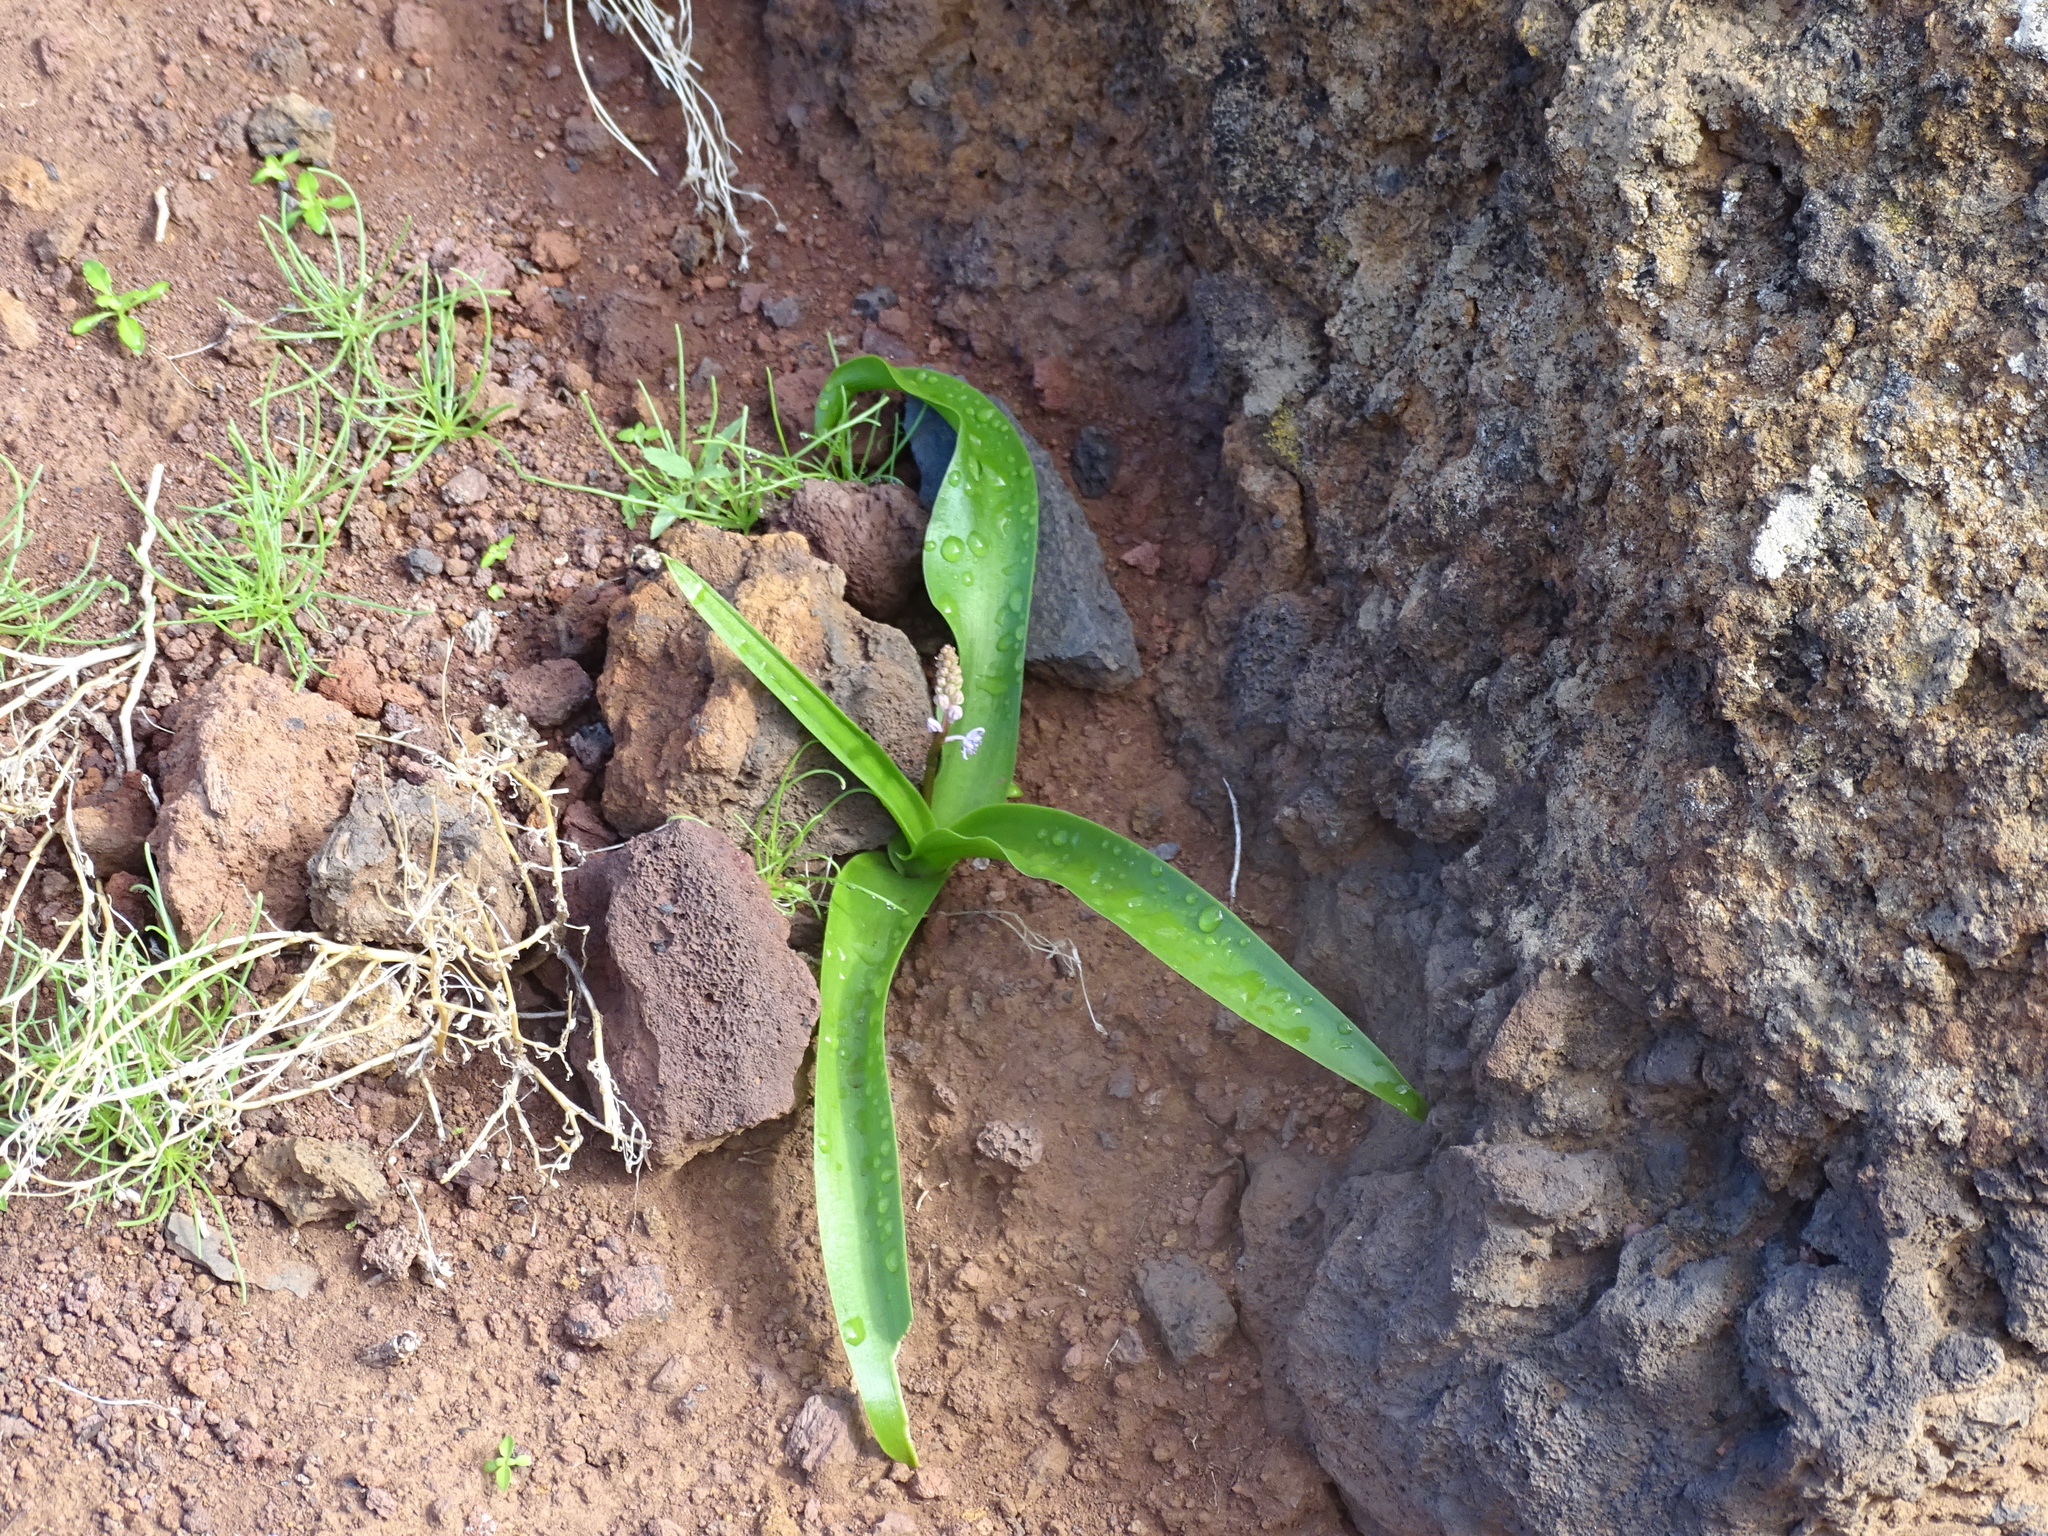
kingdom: Plantae
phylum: Tracheophyta
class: Liliopsida
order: Asparagales
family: Asparagaceae
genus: Scilla
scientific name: Scilla haemorrhoidalis
